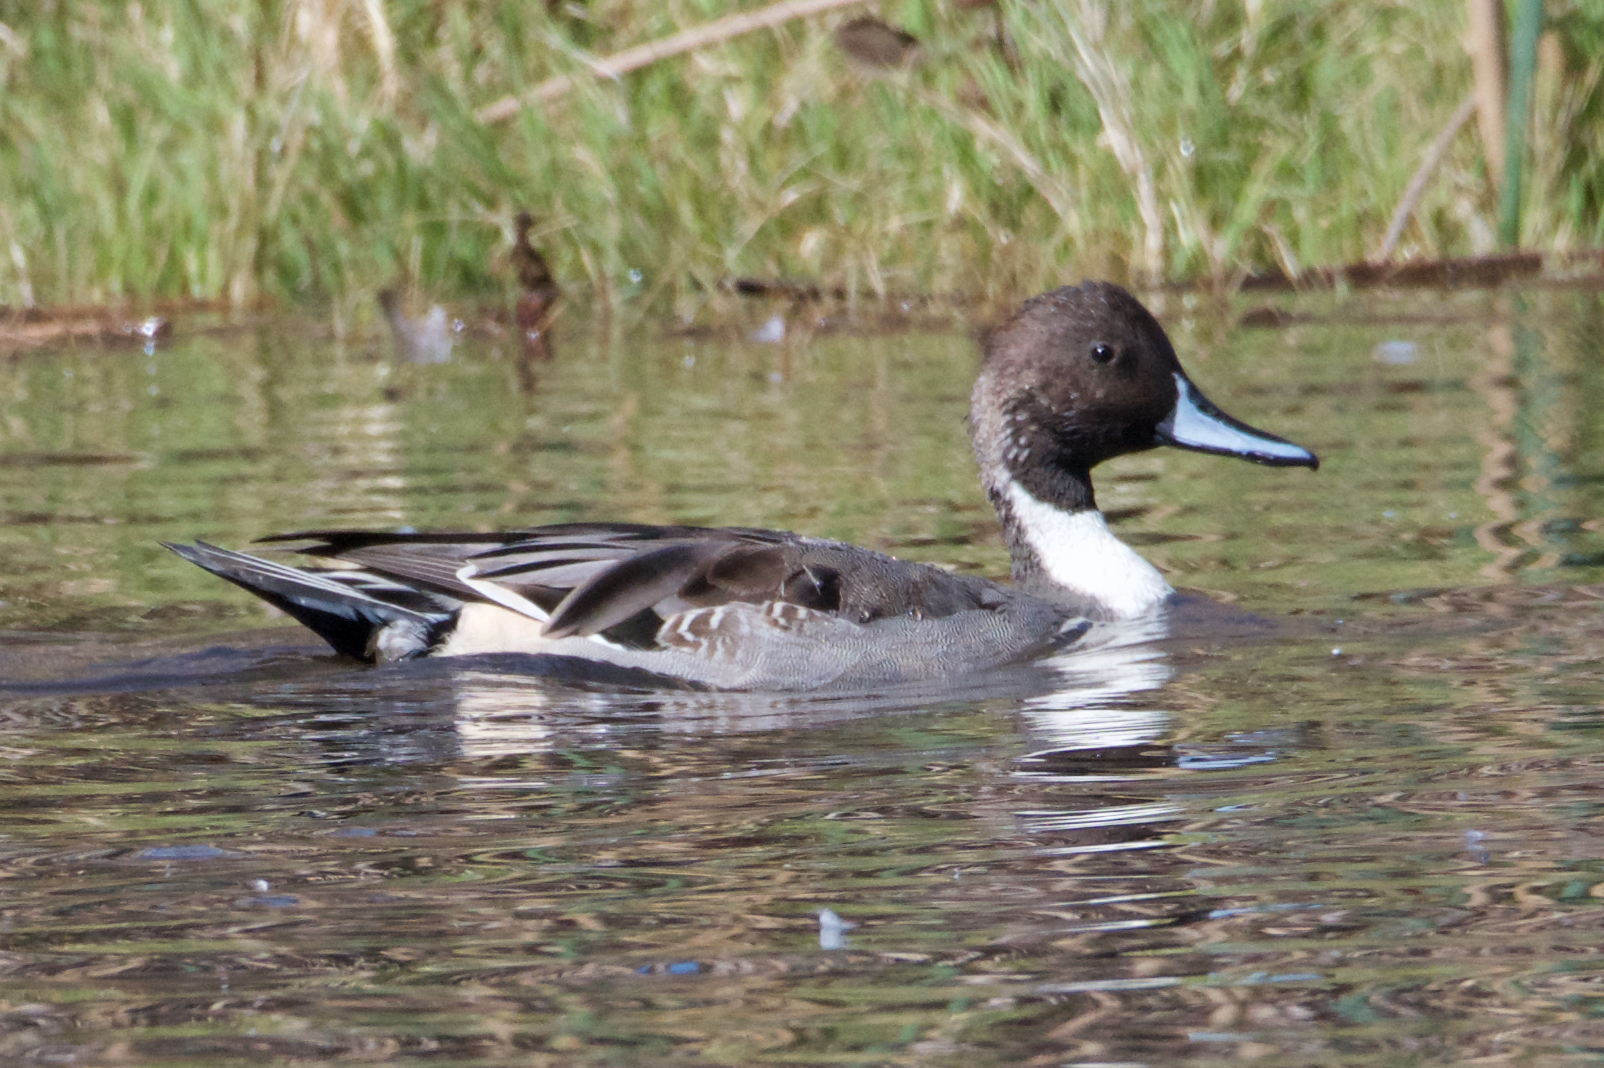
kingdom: Animalia
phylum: Chordata
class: Aves
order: Anseriformes
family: Anatidae
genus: Anas
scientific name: Anas acuta
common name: Northern pintail
